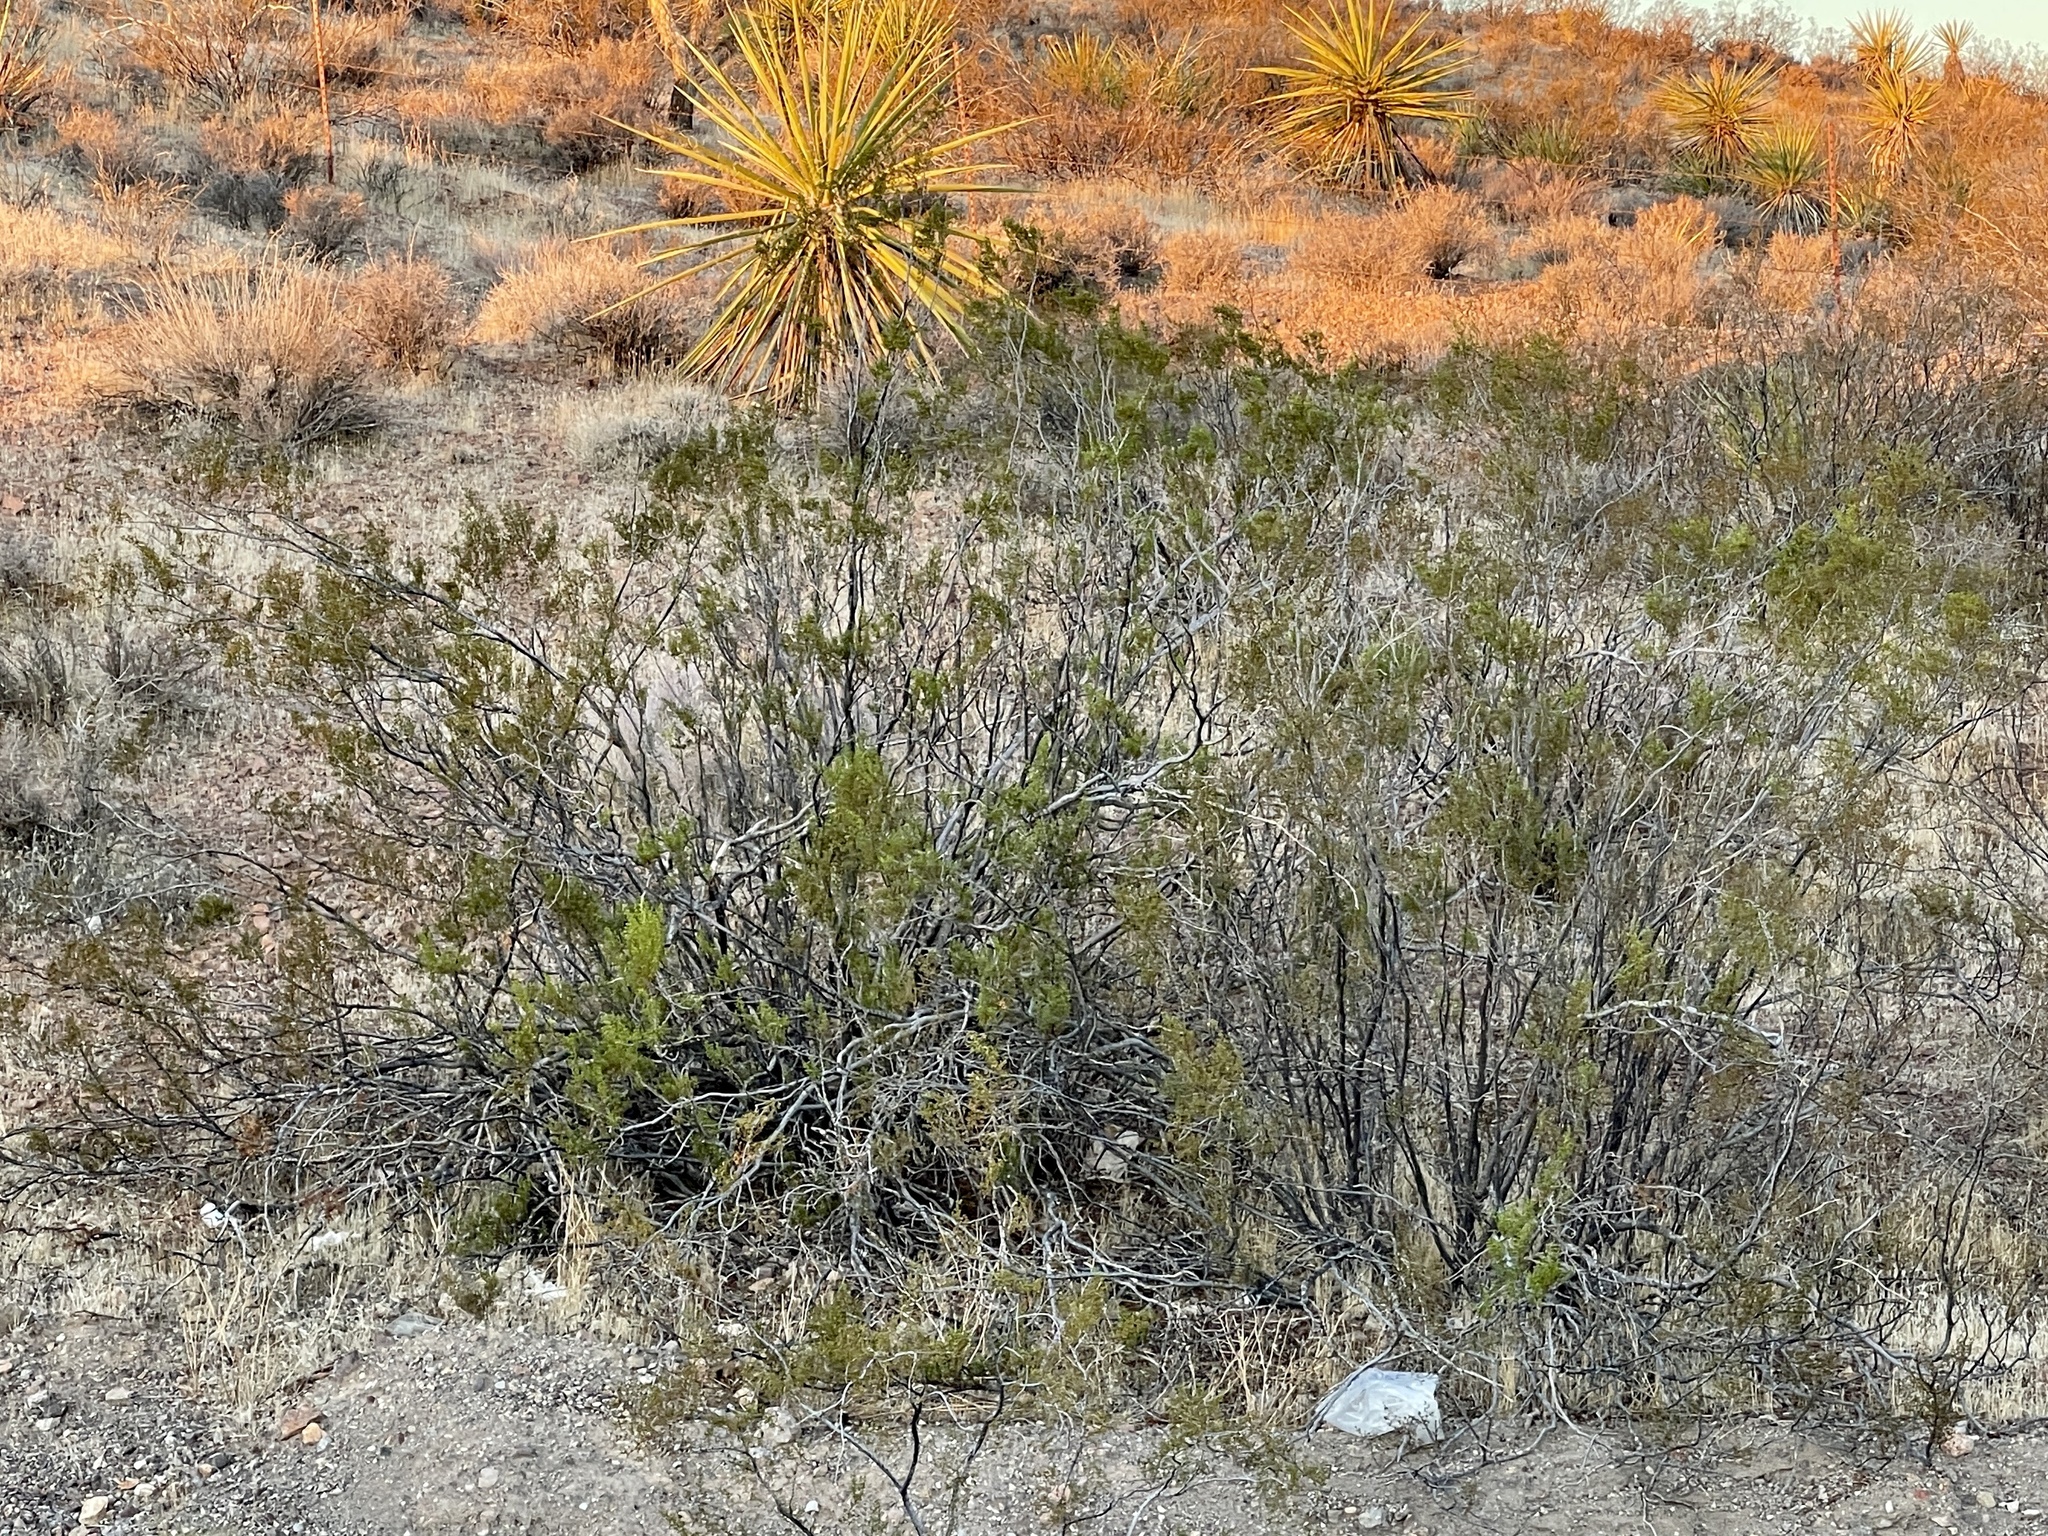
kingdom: Plantae
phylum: Tracheophyta
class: Magnoliopsida
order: Zygophyllales
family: Zygophyllaceae
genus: Larrea
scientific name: Larrea tridentata
